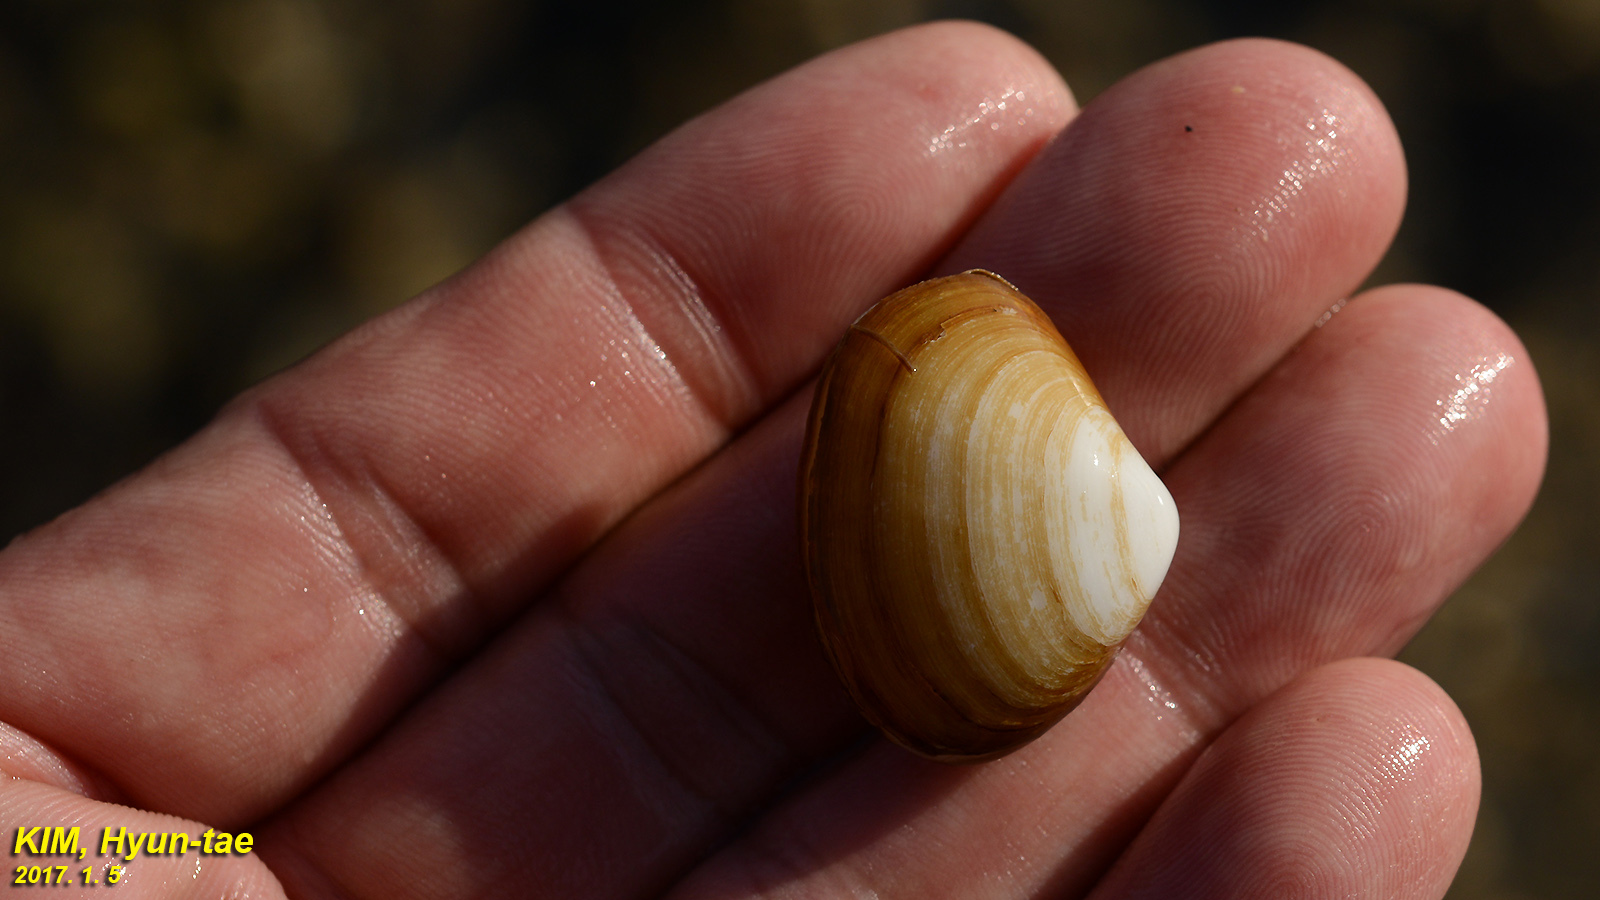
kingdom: Animalia
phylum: Mollusca
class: Bivalvia
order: Venerida
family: Mesodesmatidae
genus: Coecella
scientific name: Coecella chinensis
